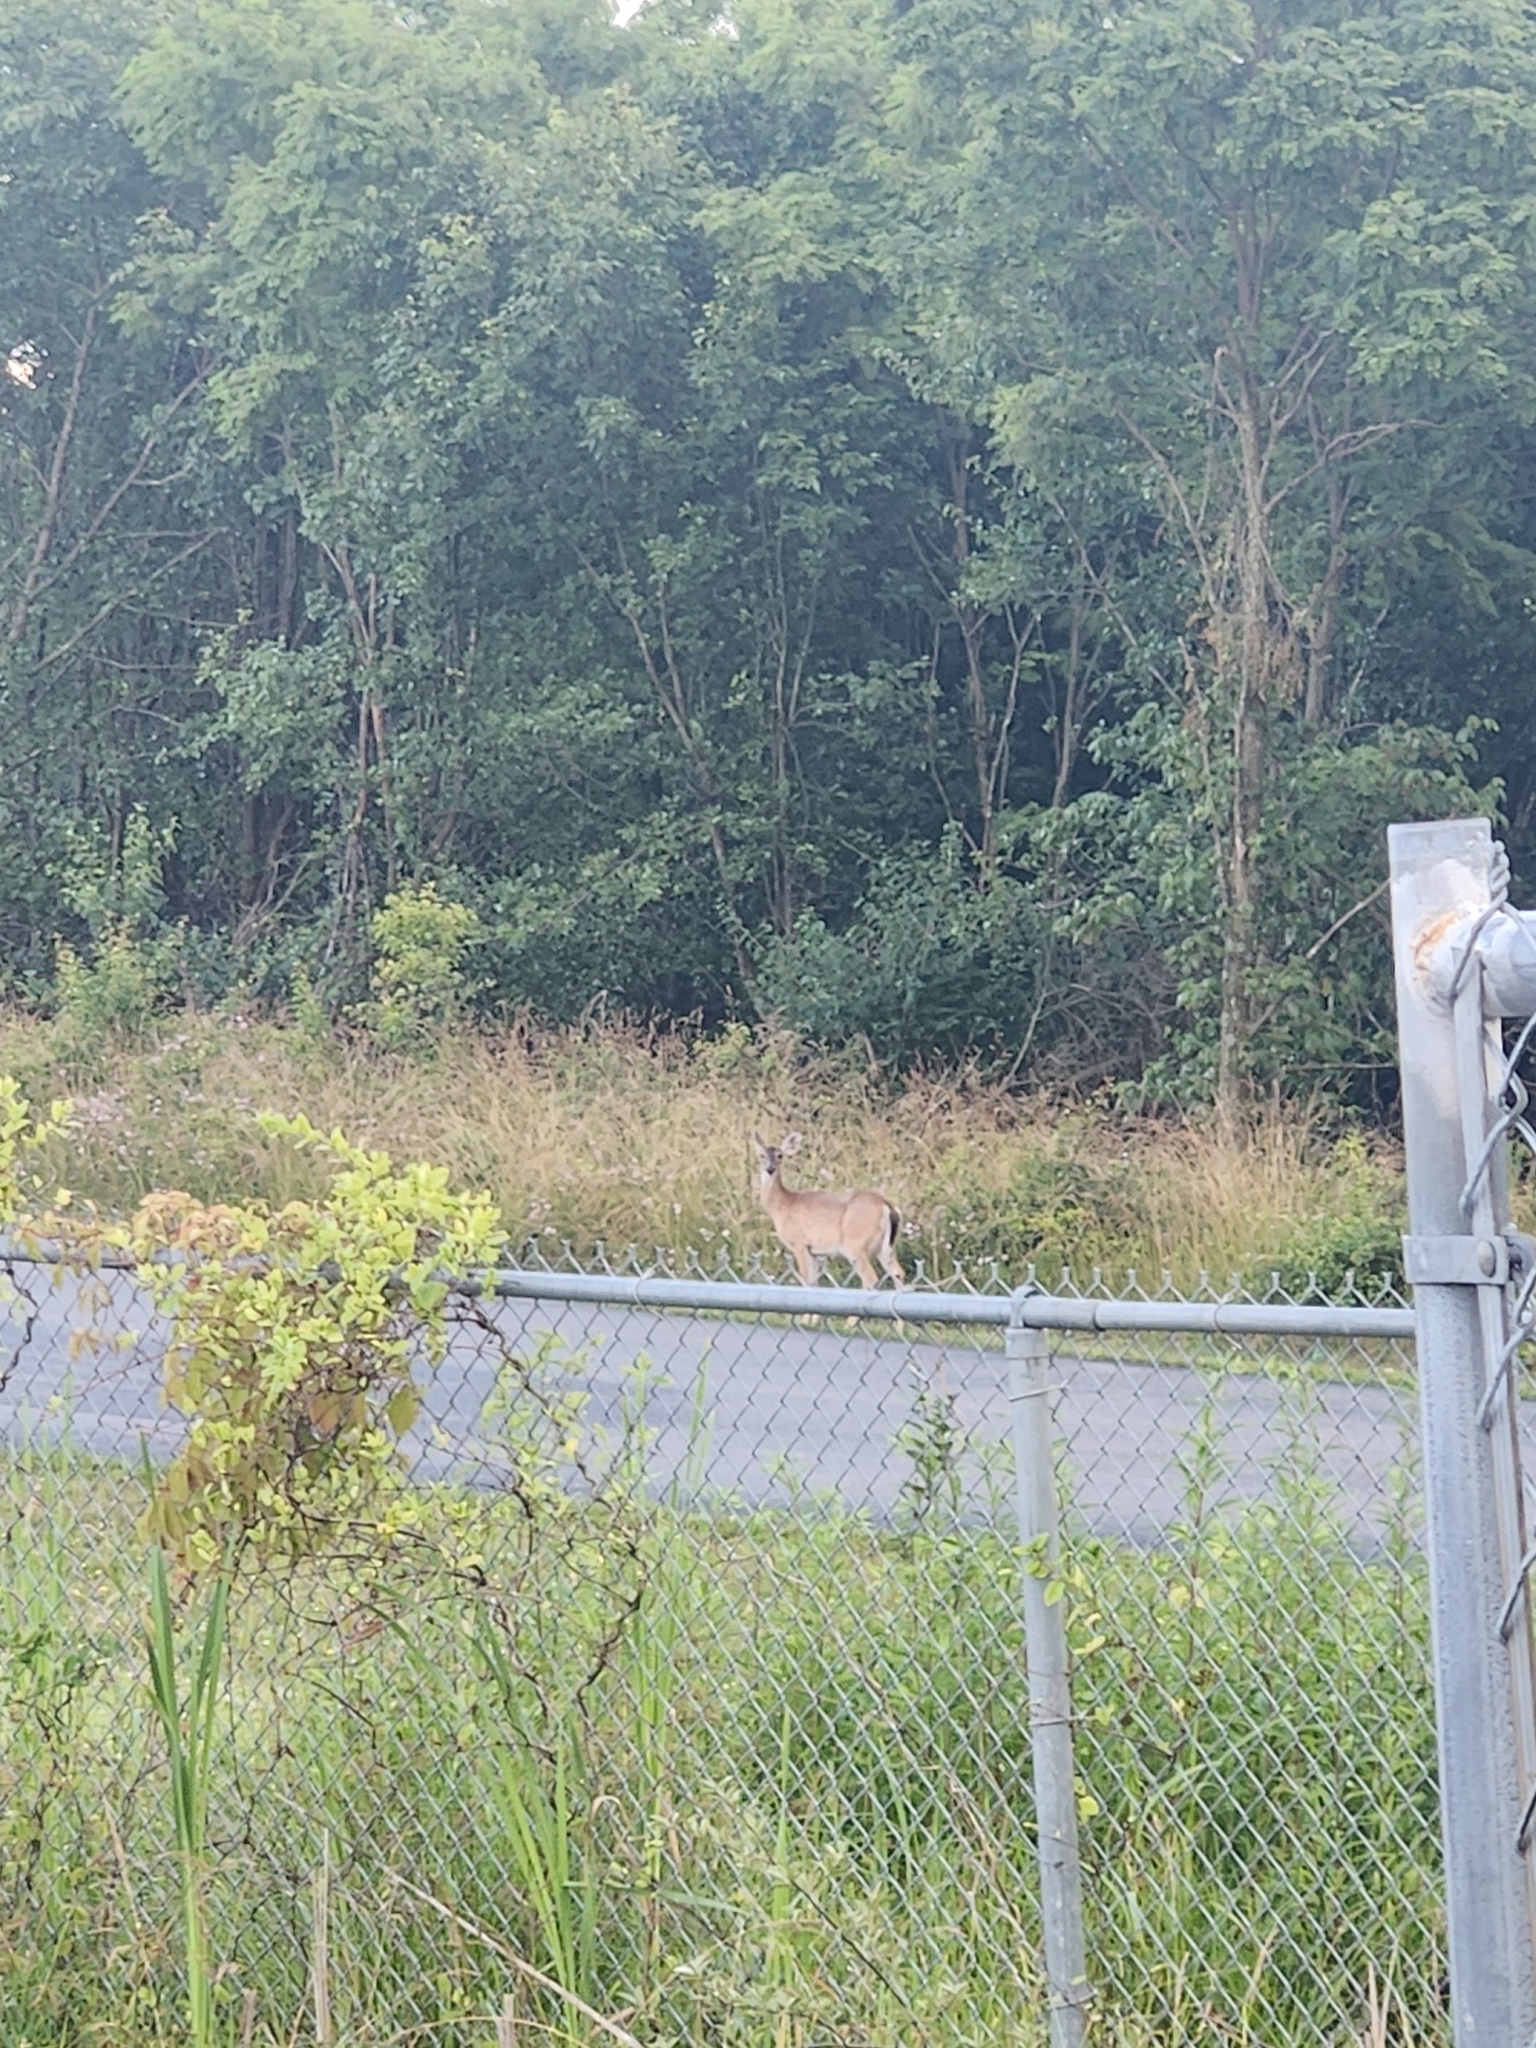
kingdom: Animalia
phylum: Chordata
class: Mammalia
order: Artiodactyla
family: Cervidae
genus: Odocoileus
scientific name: Odocoileus virginianus
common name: White-tailed deer
